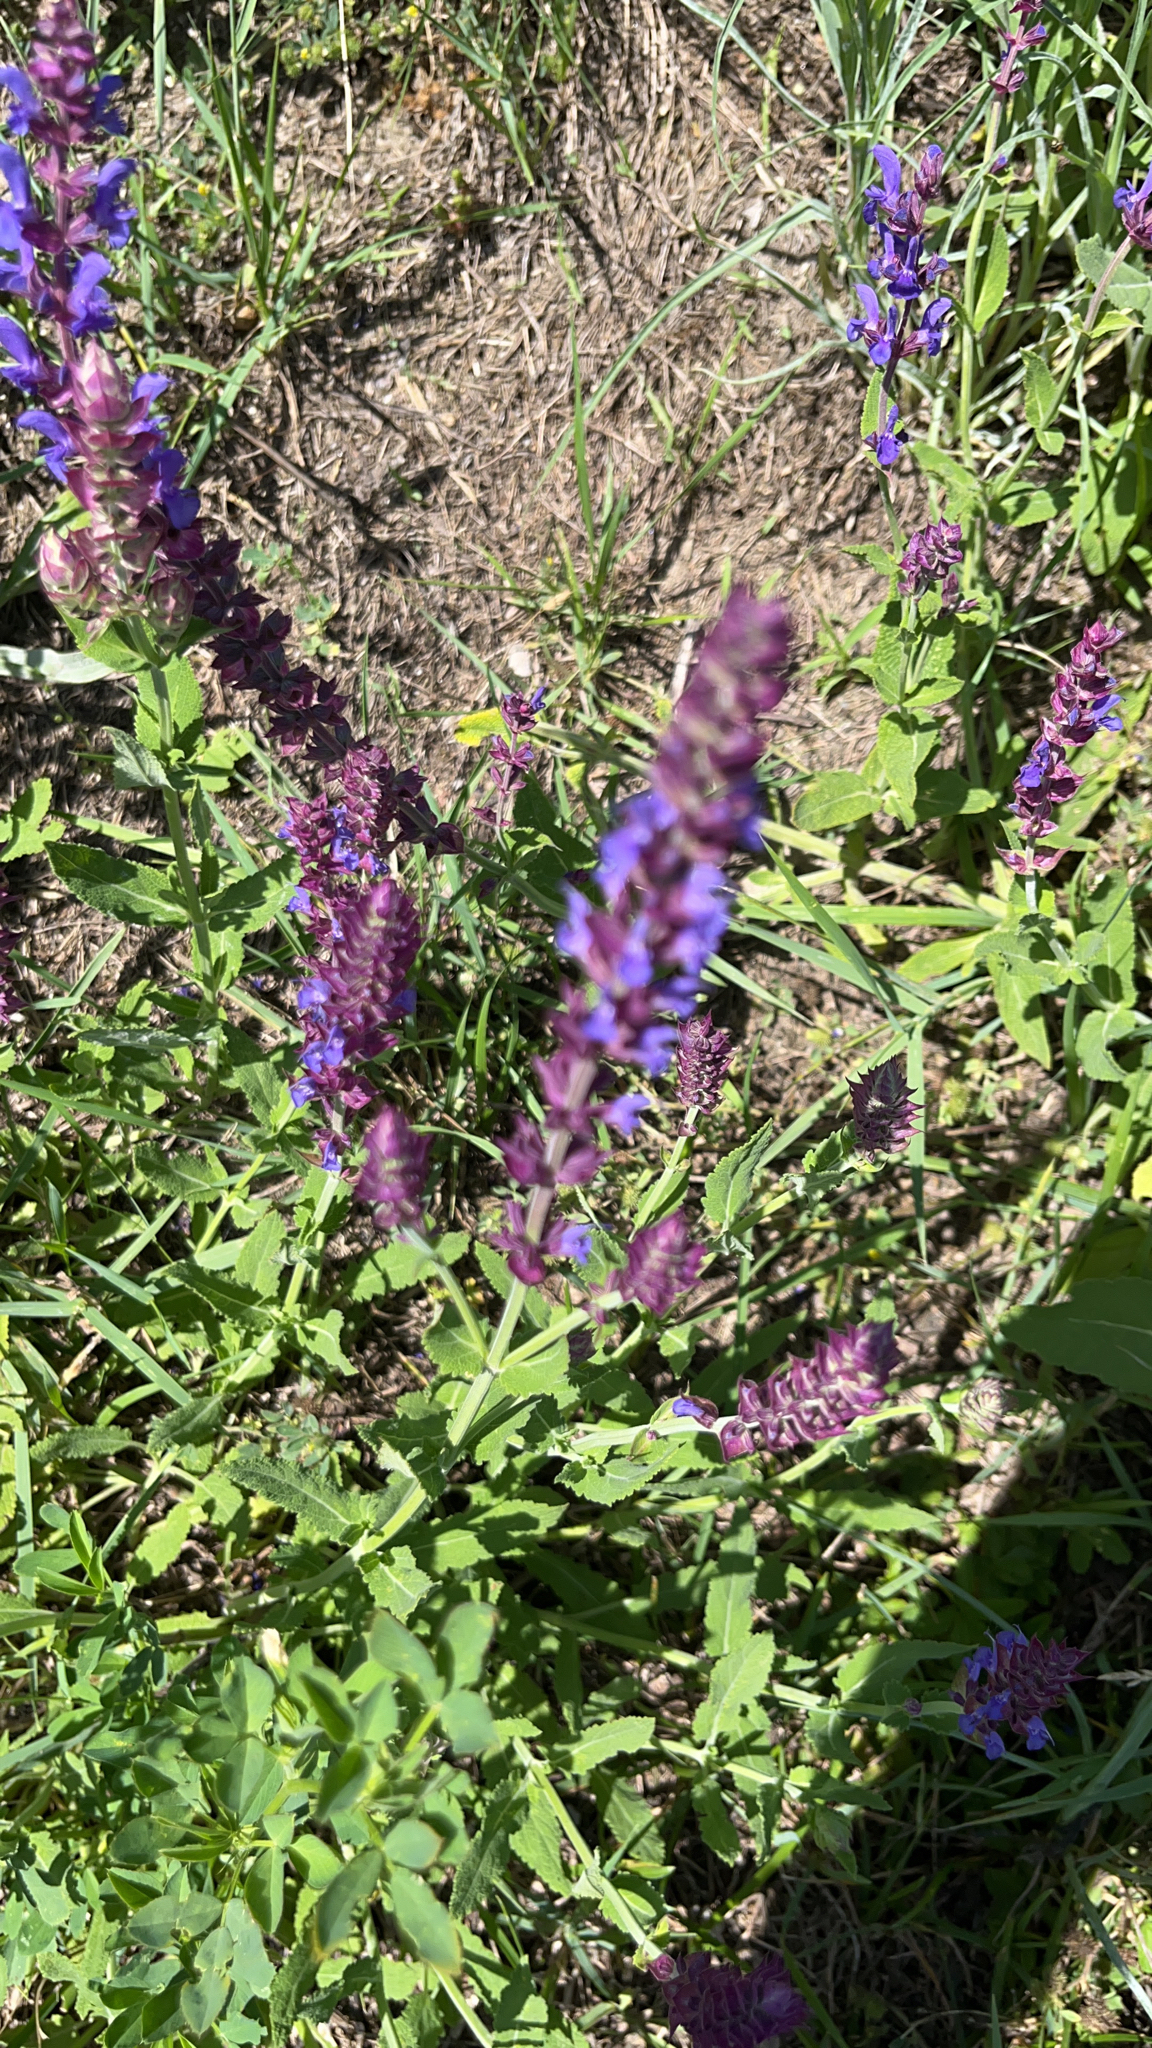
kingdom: Plantae
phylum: Tracheophyta
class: Magnoliopsida
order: Lamiales
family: Lamiaceae
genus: Salvia
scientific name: Salvia nemorosa
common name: Balkan clary
